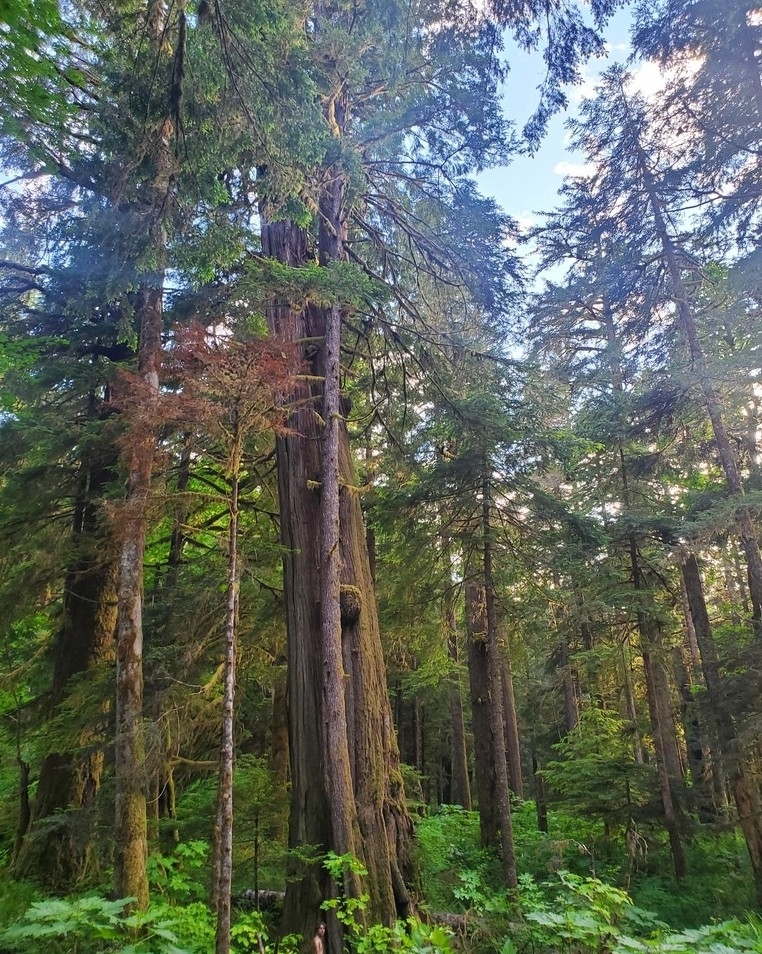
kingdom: Plantae
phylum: Tracheophyta
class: Pinopsida
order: Pinales
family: Cupressaceae
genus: Thuja
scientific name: Thuja plicata
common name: Western red-cedar
